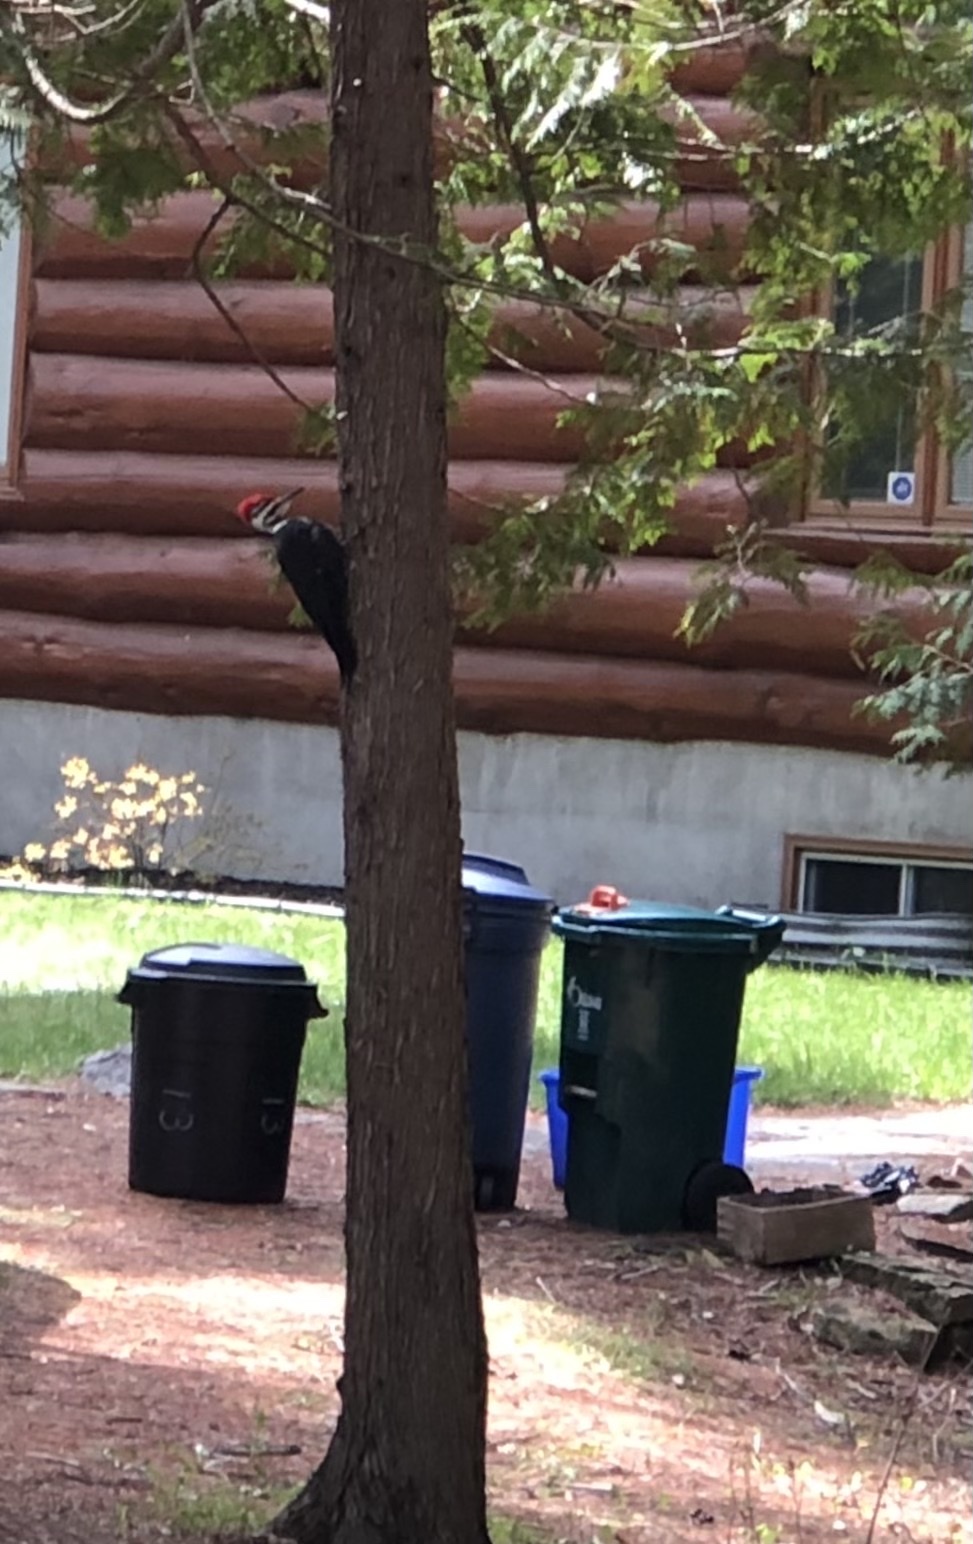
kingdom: Animalia
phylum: Chordata
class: Aves
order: Piciformes
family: Picidae
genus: Dryocopus
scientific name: Dryocopus pileatus
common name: Pileated woodpecker
